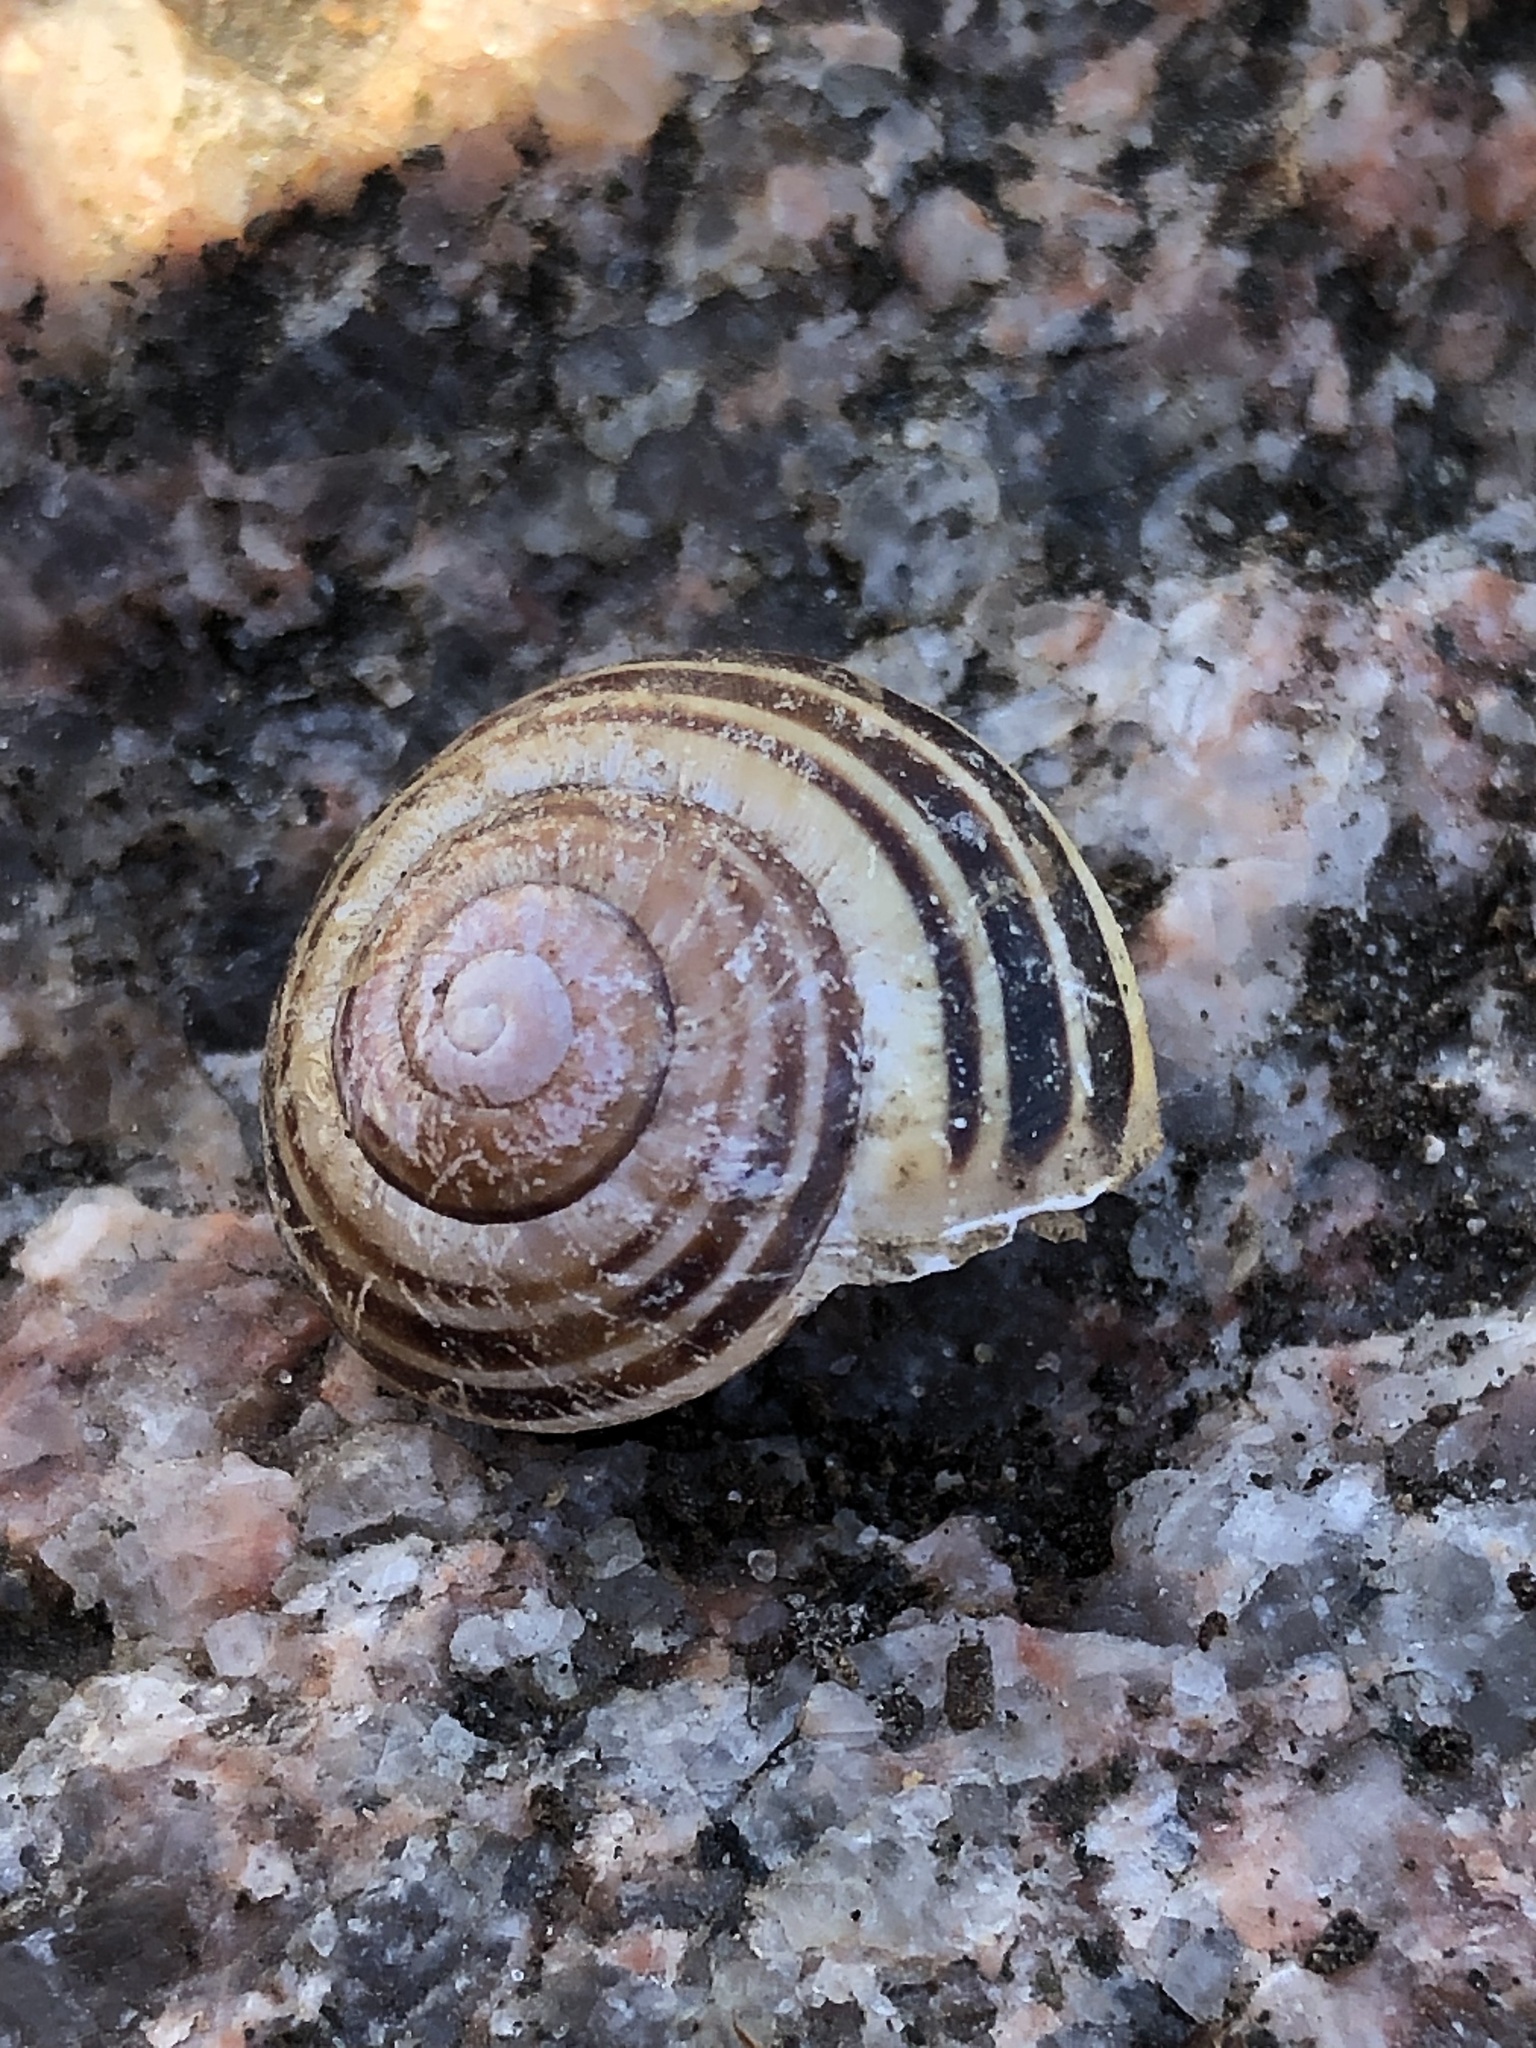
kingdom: Animalia
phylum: Mollusca
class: Gastropoda
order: Stylommatophora
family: Helicidae
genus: Cepaea
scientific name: Cepaea nemoralis
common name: Grovesnail
